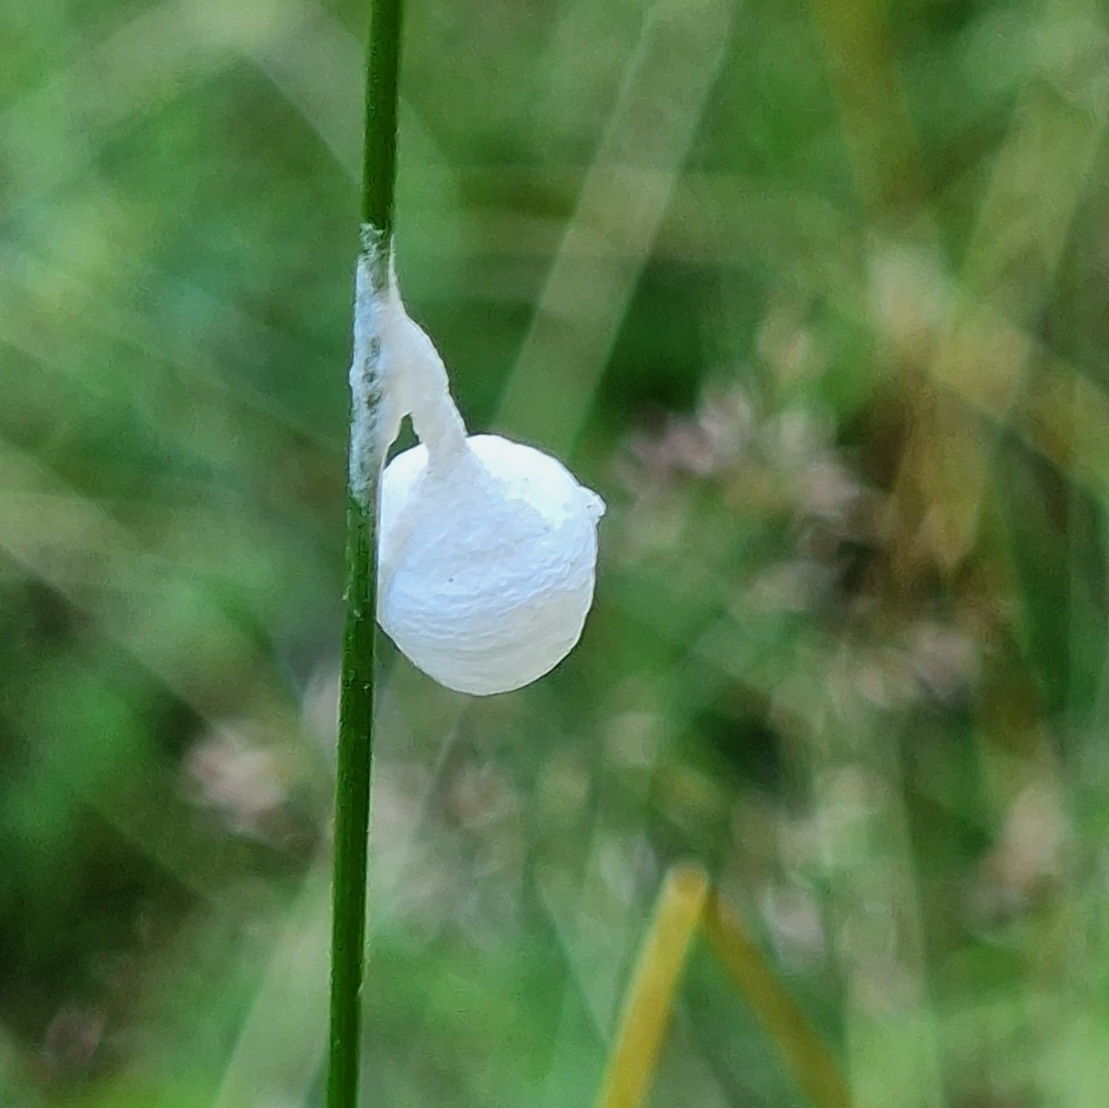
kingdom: Animalia
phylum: Arthropoda
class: Arachnida
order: Araneae
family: Liocranidae
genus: Agroeca
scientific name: Agroeca brunnea
